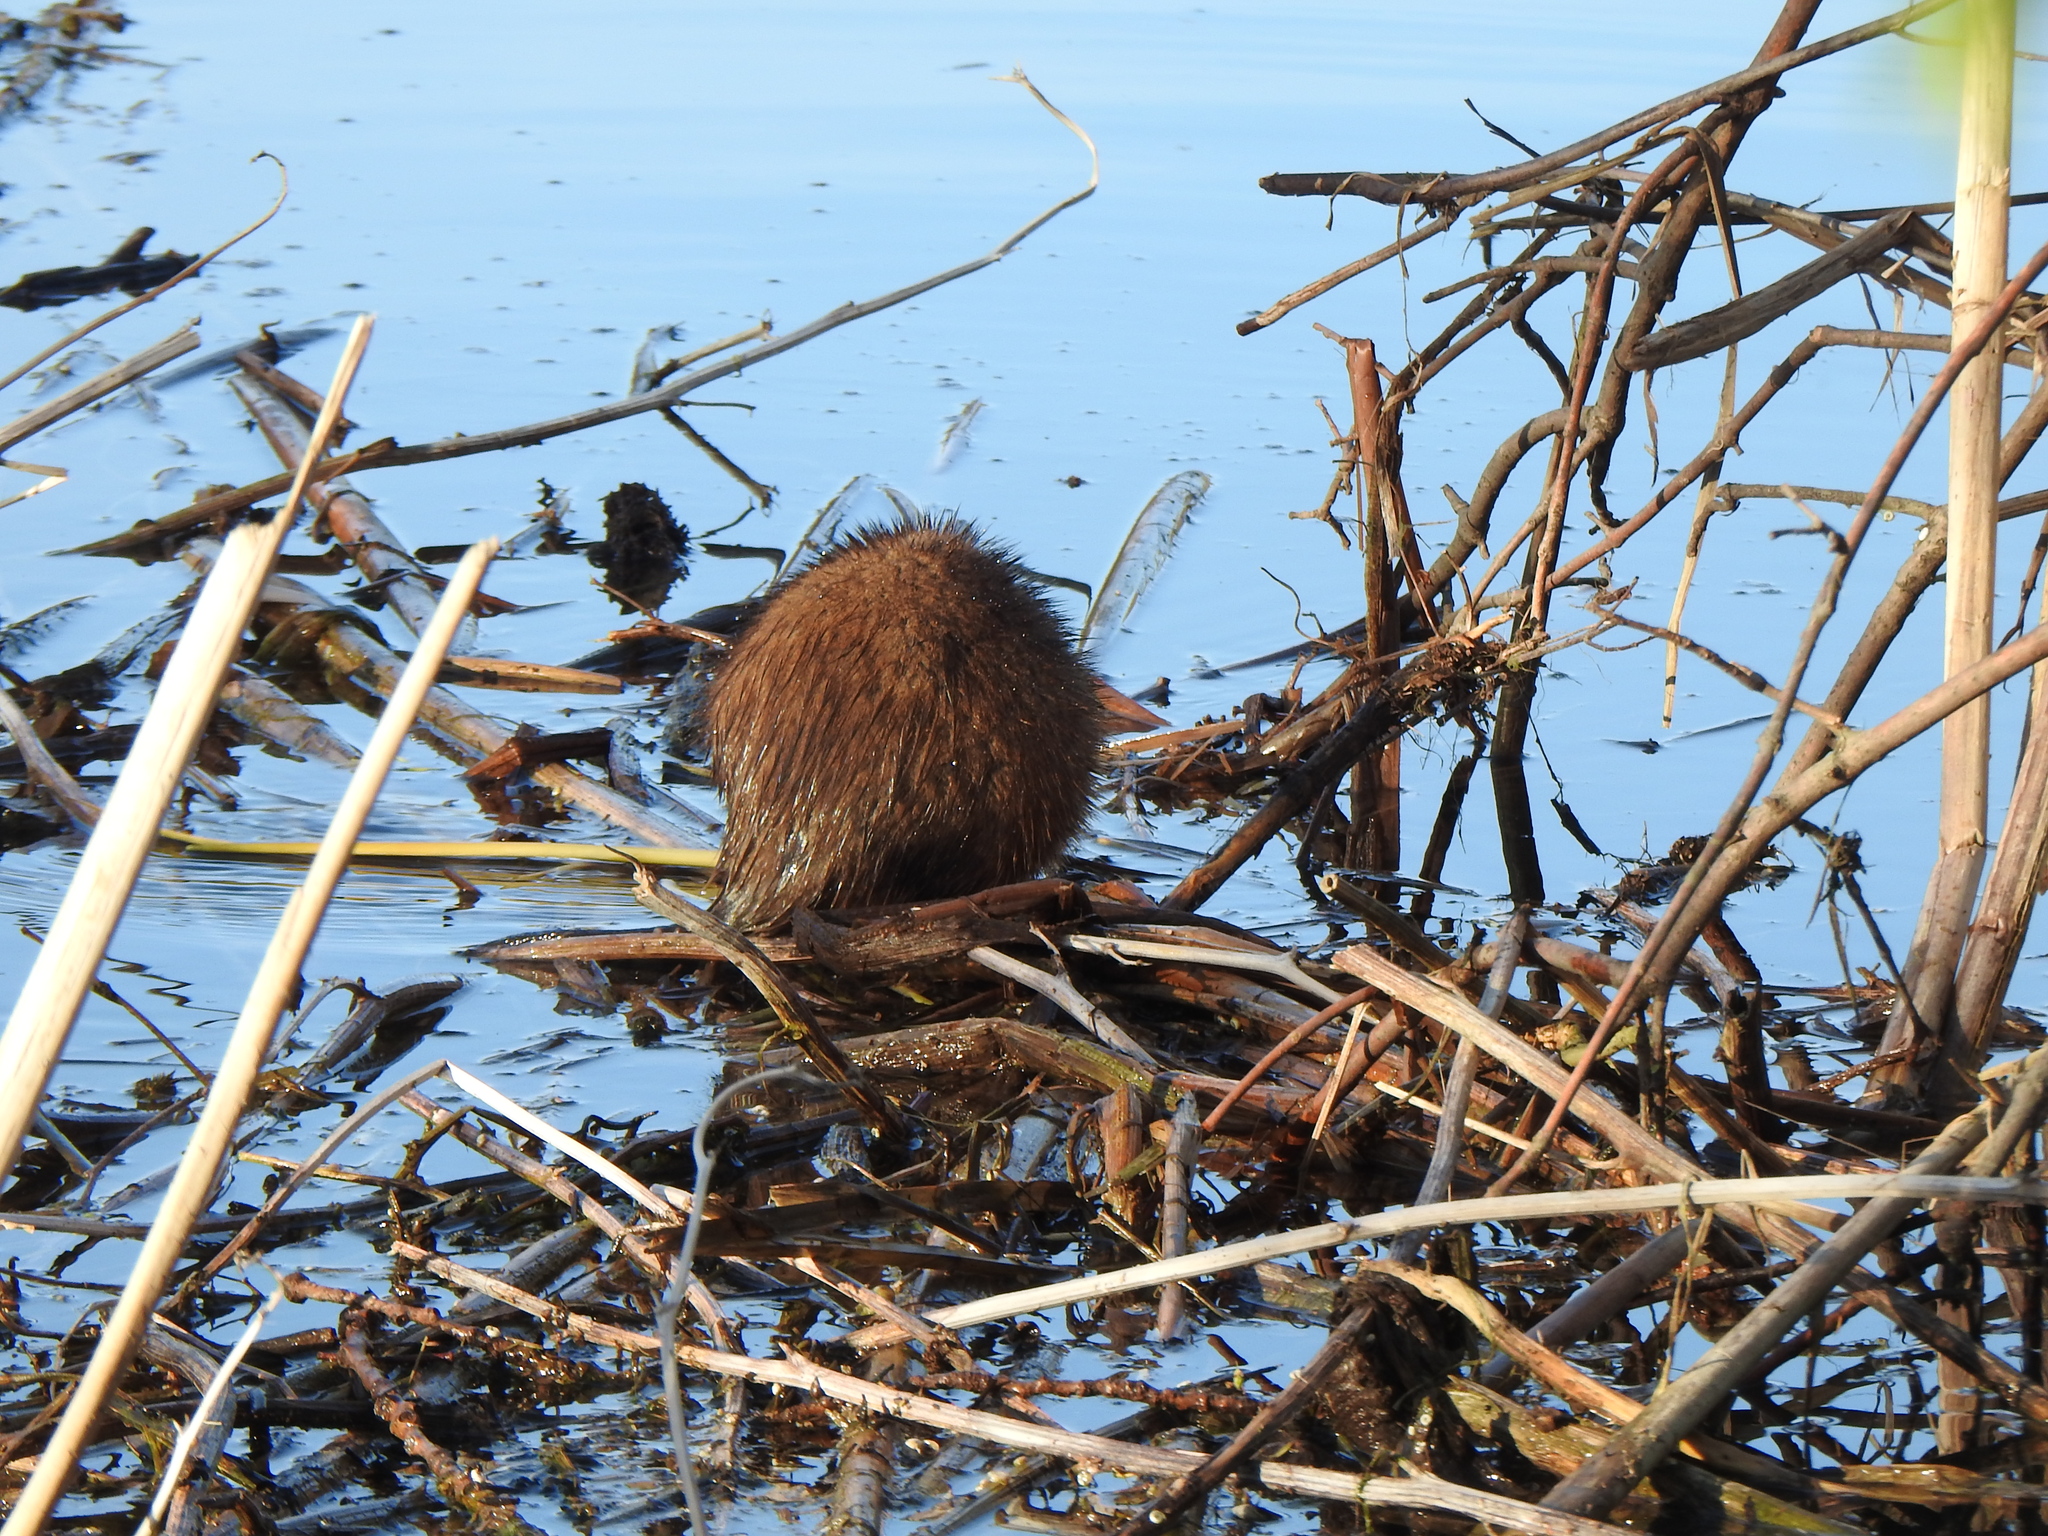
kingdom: Animalia
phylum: Chordata
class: Mammalia
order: Rodentia
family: Cricetidae
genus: Ondatra
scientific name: Ondatra zibethicus
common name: Muskrat
